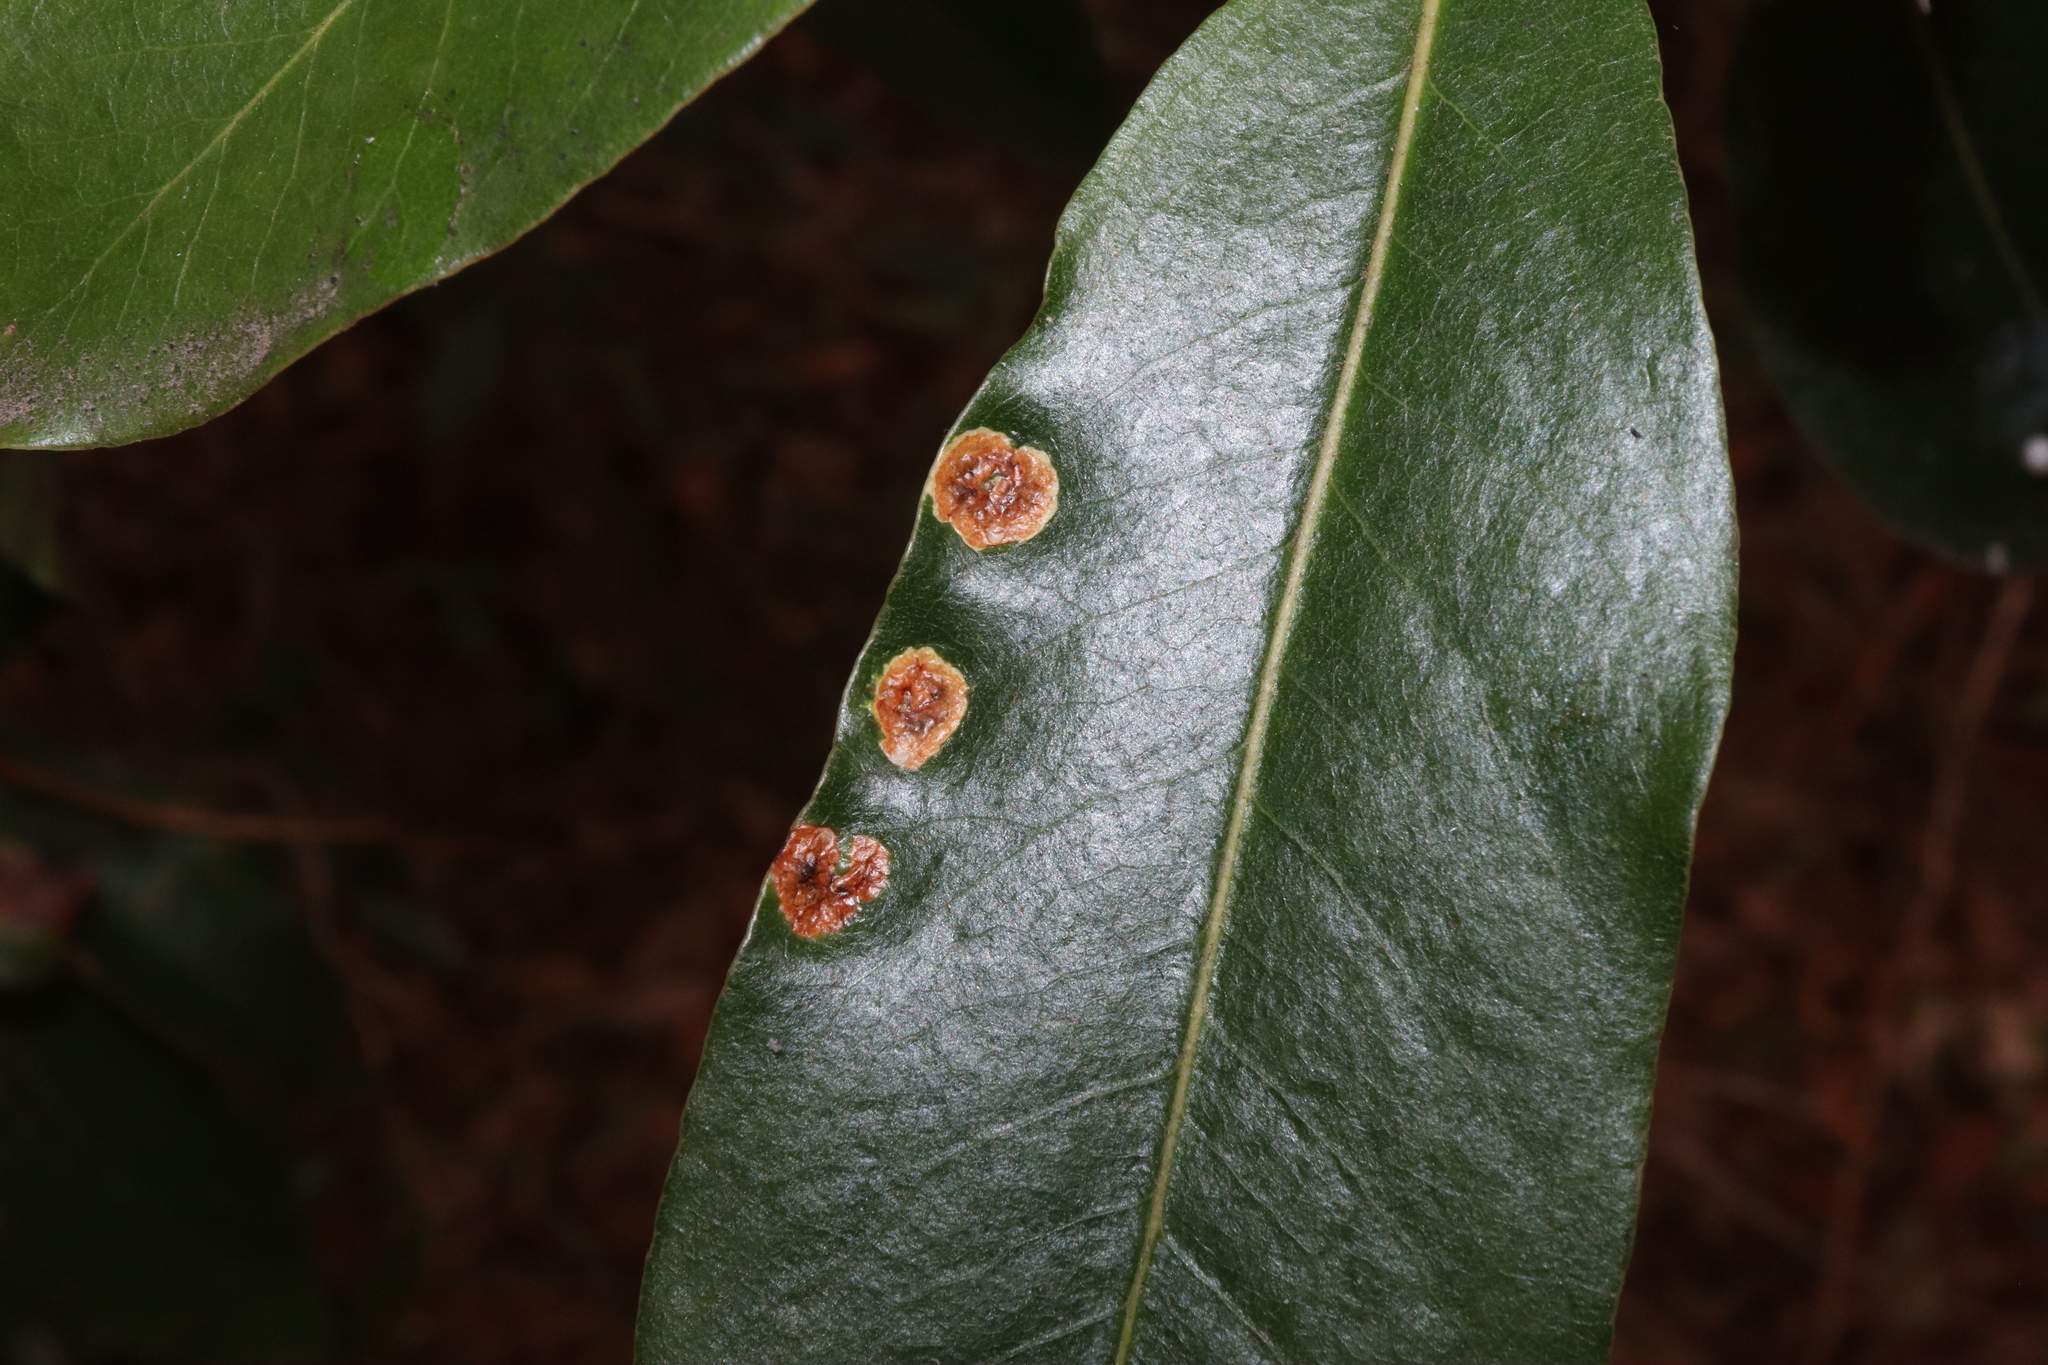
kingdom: Animalia
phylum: Arthropoda
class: Insecta
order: Diptera
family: Agromyzidae
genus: Phytoliriomyza
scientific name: Phytoliriomyza pittosporophylli
